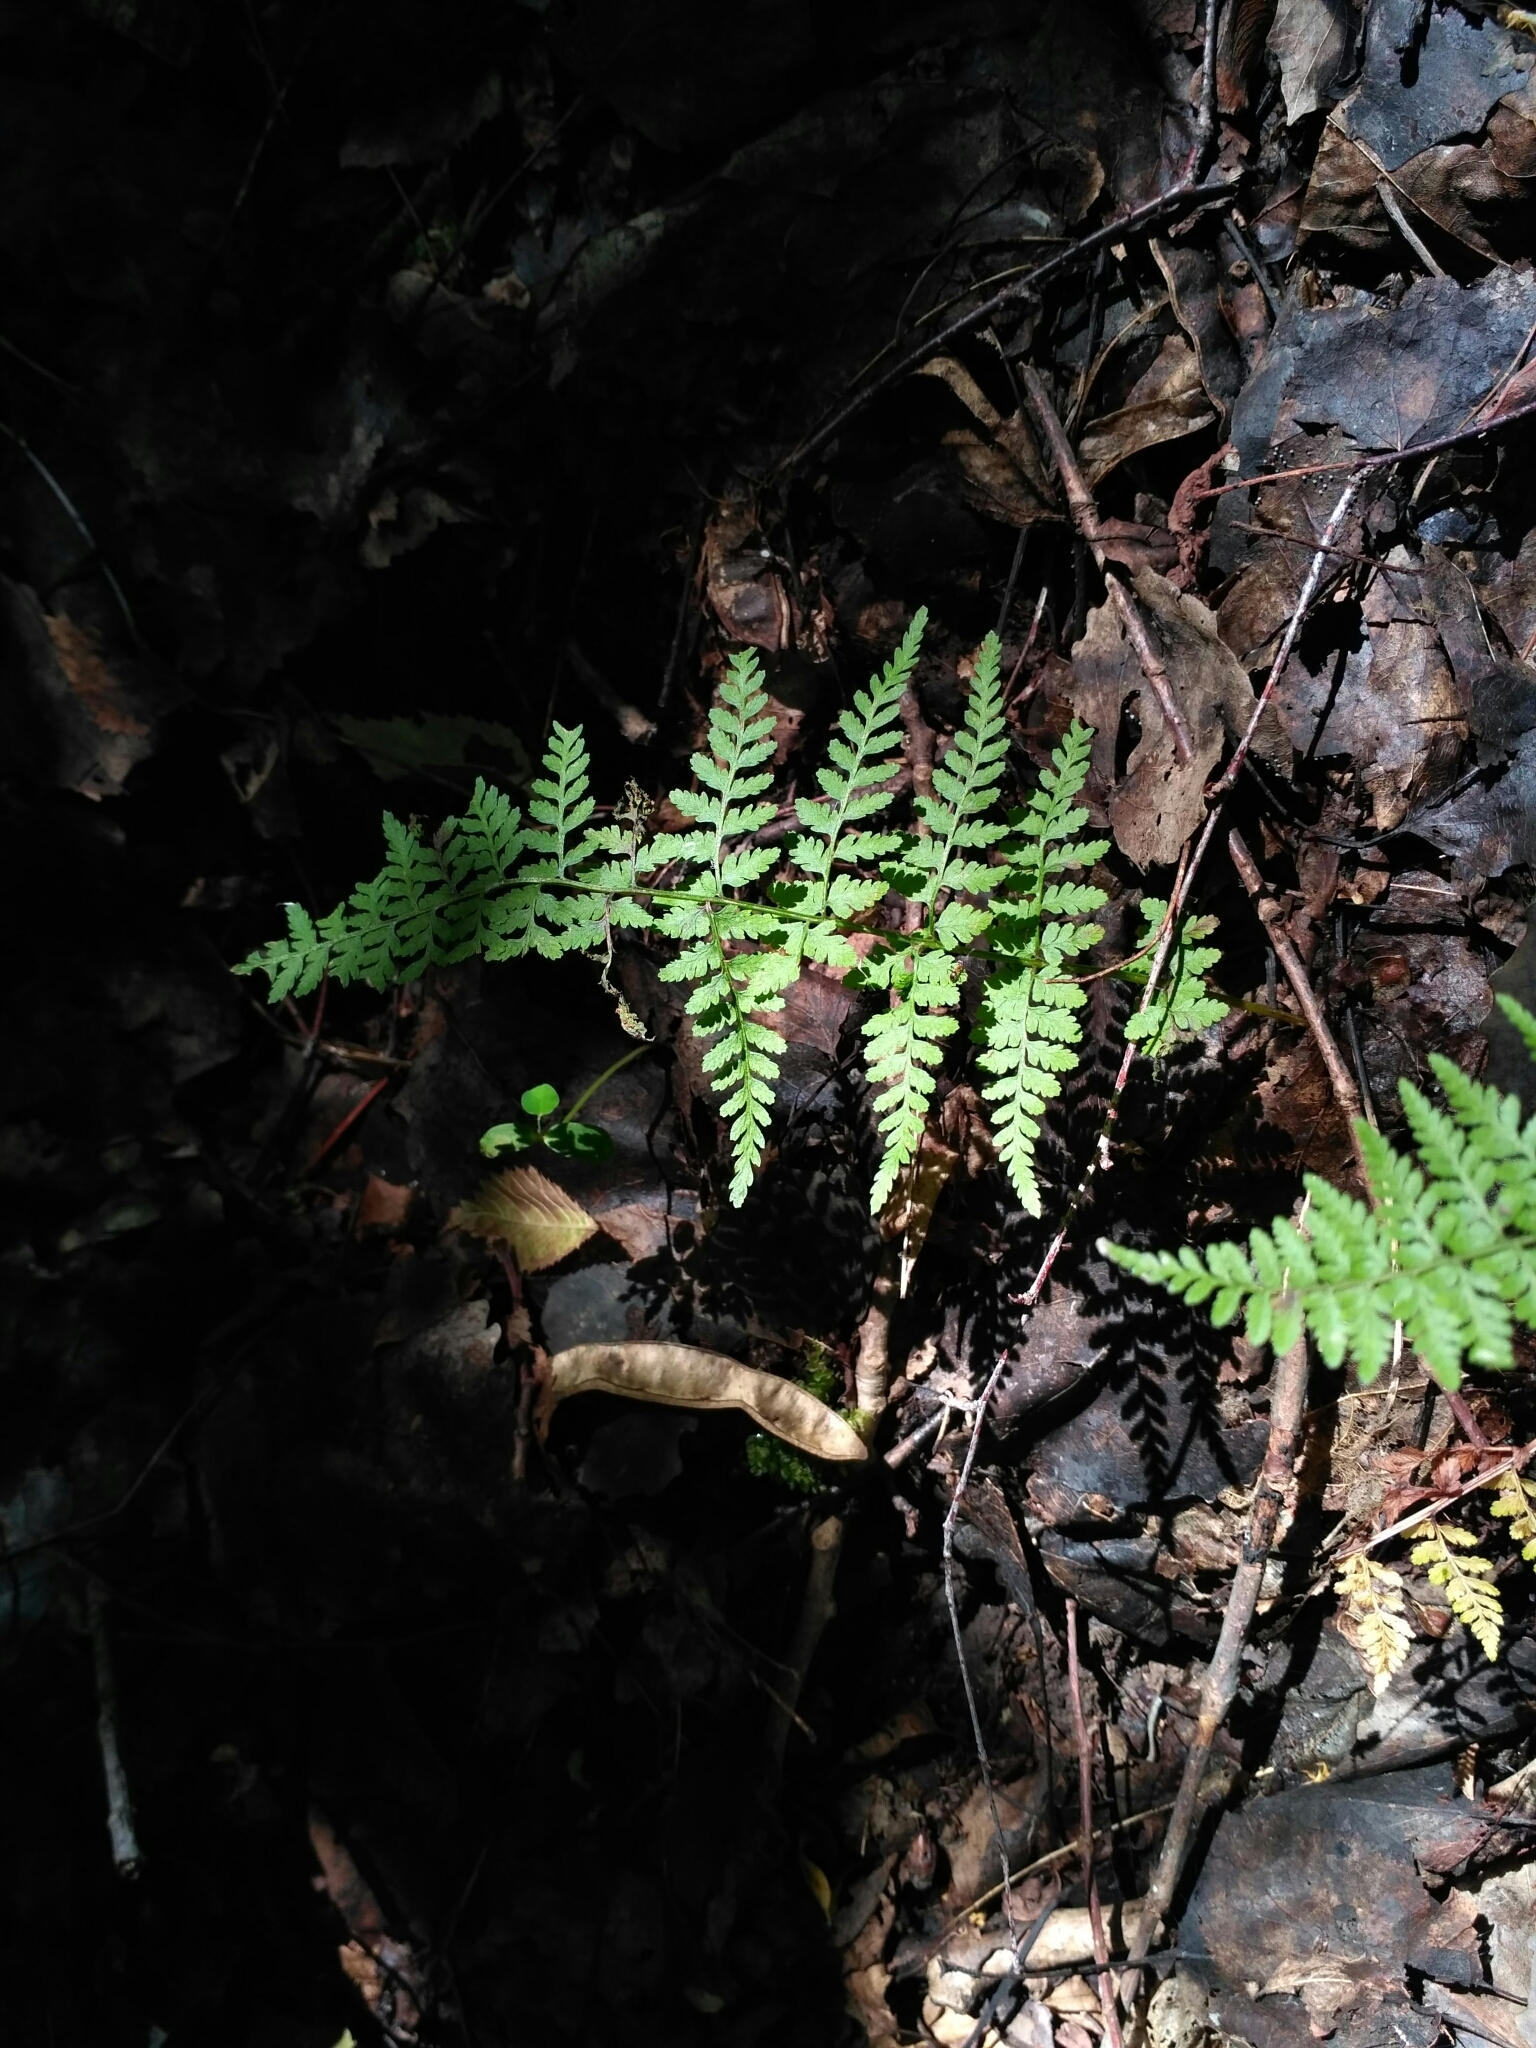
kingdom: Plantae
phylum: Tracheophyta
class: Polypodiopsida
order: Polypodiales
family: Cystopteridaceae
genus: Cystopteris
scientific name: Cystopteris fragilis
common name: Brittle bladder fern
